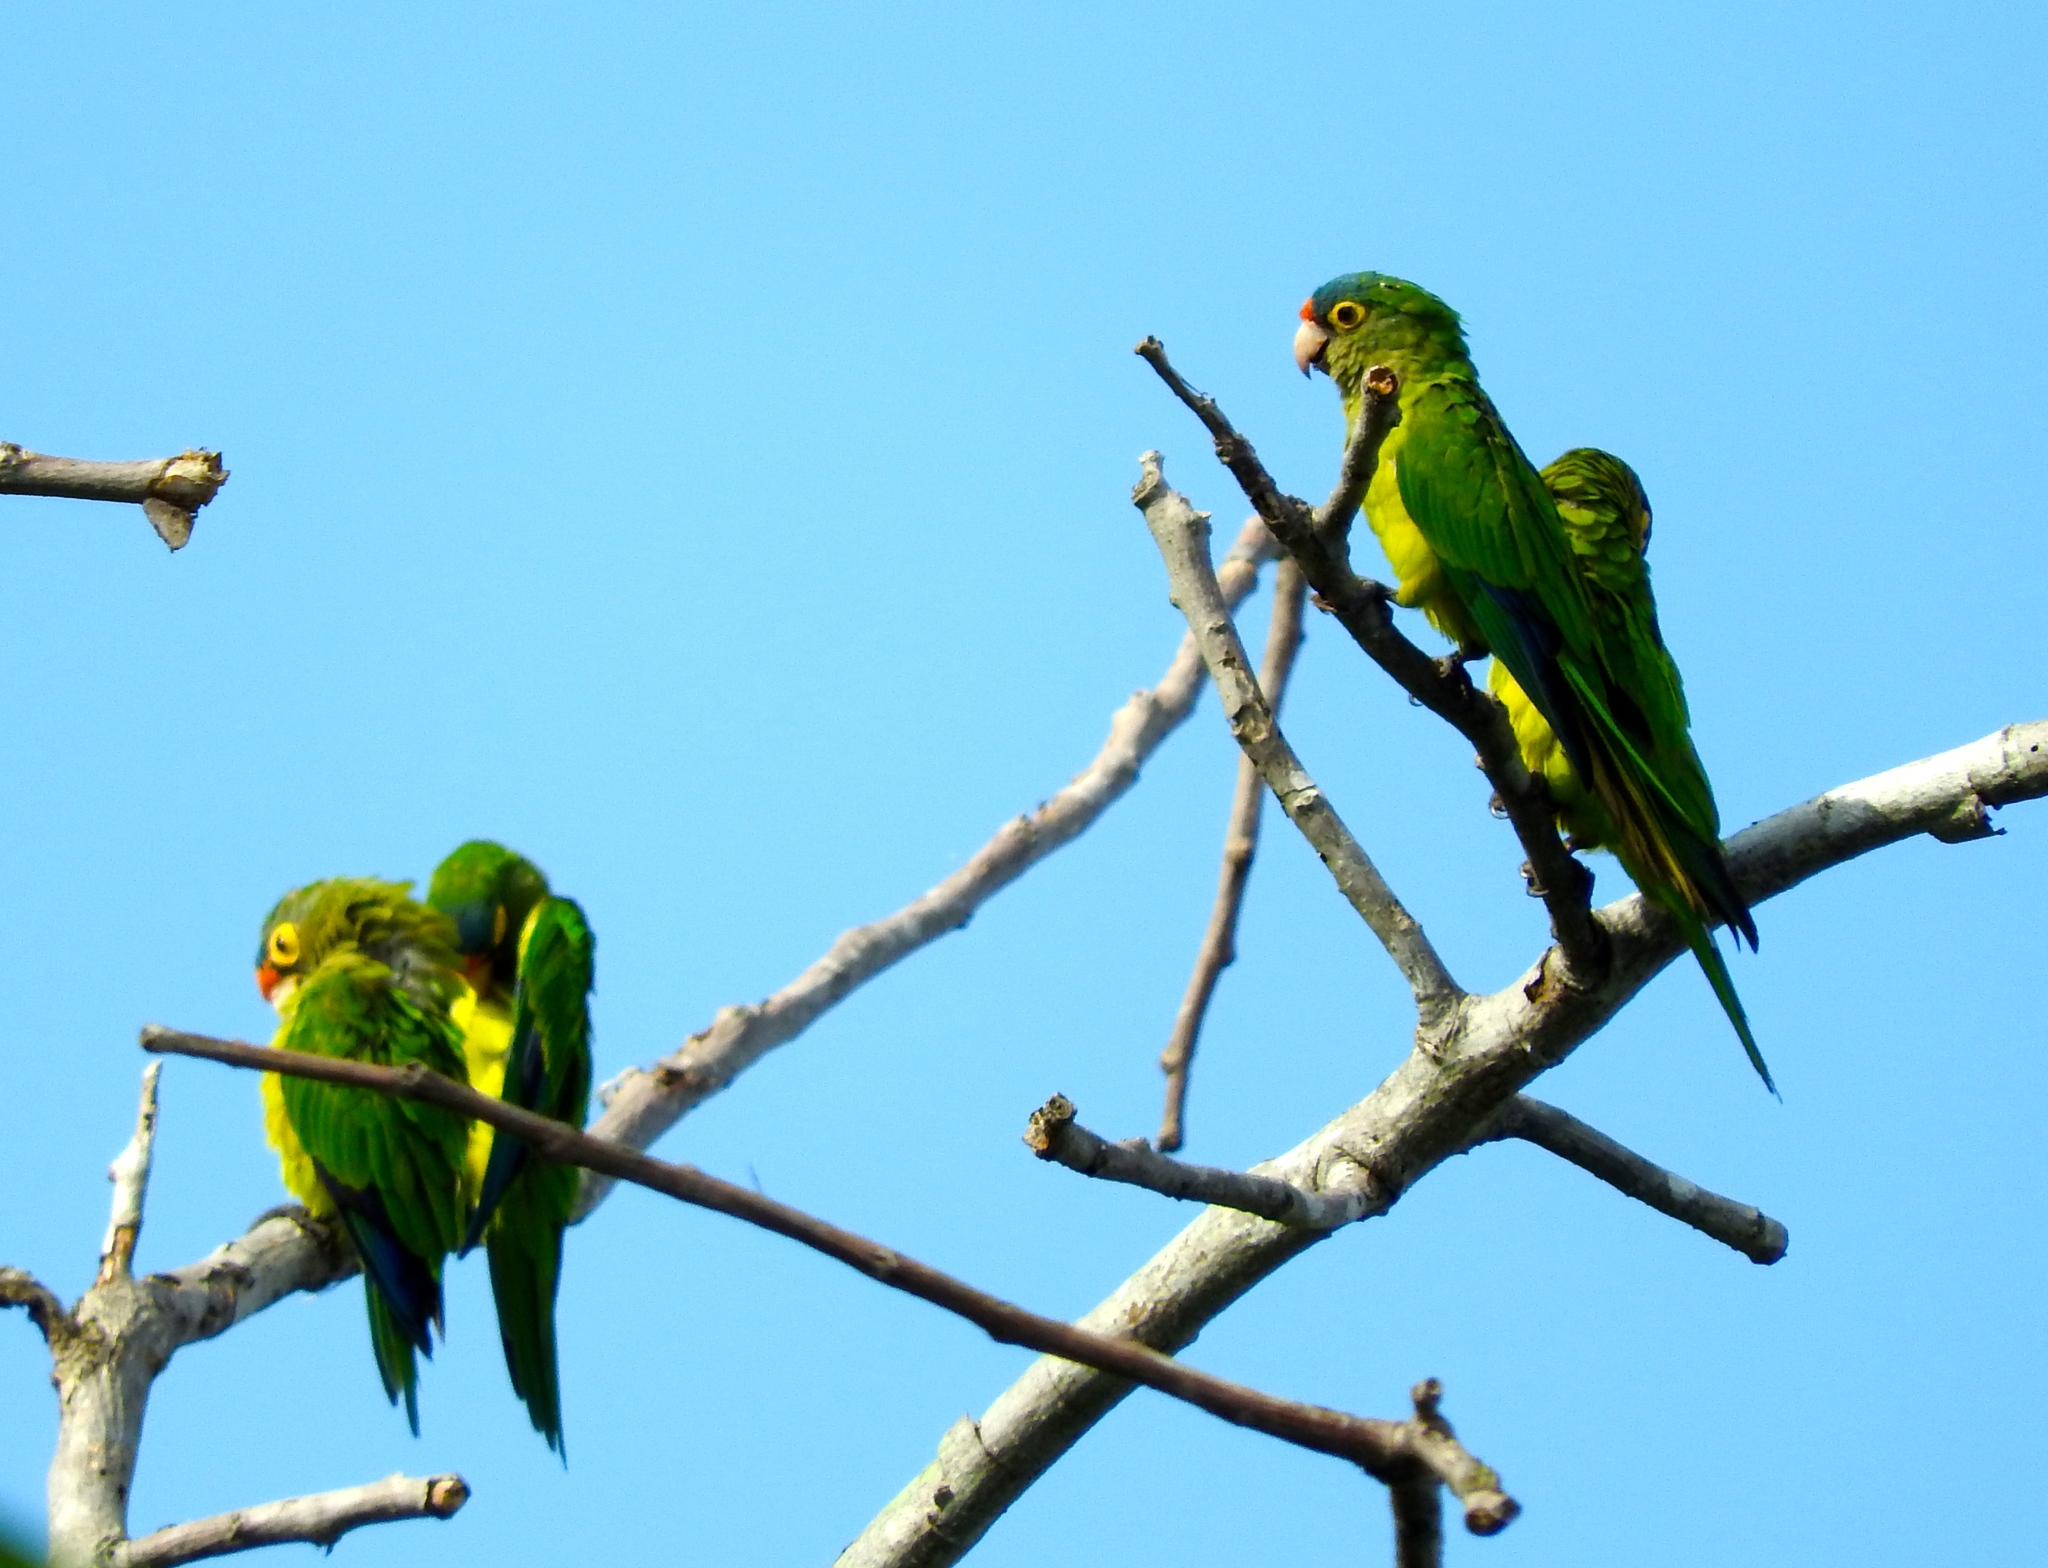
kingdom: Animalia
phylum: Chordata
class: Aves
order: Psittaciformes
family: Psittacidae
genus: Aratinga
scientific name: Aratinga canicularis
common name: Orange-fronted parakeet
